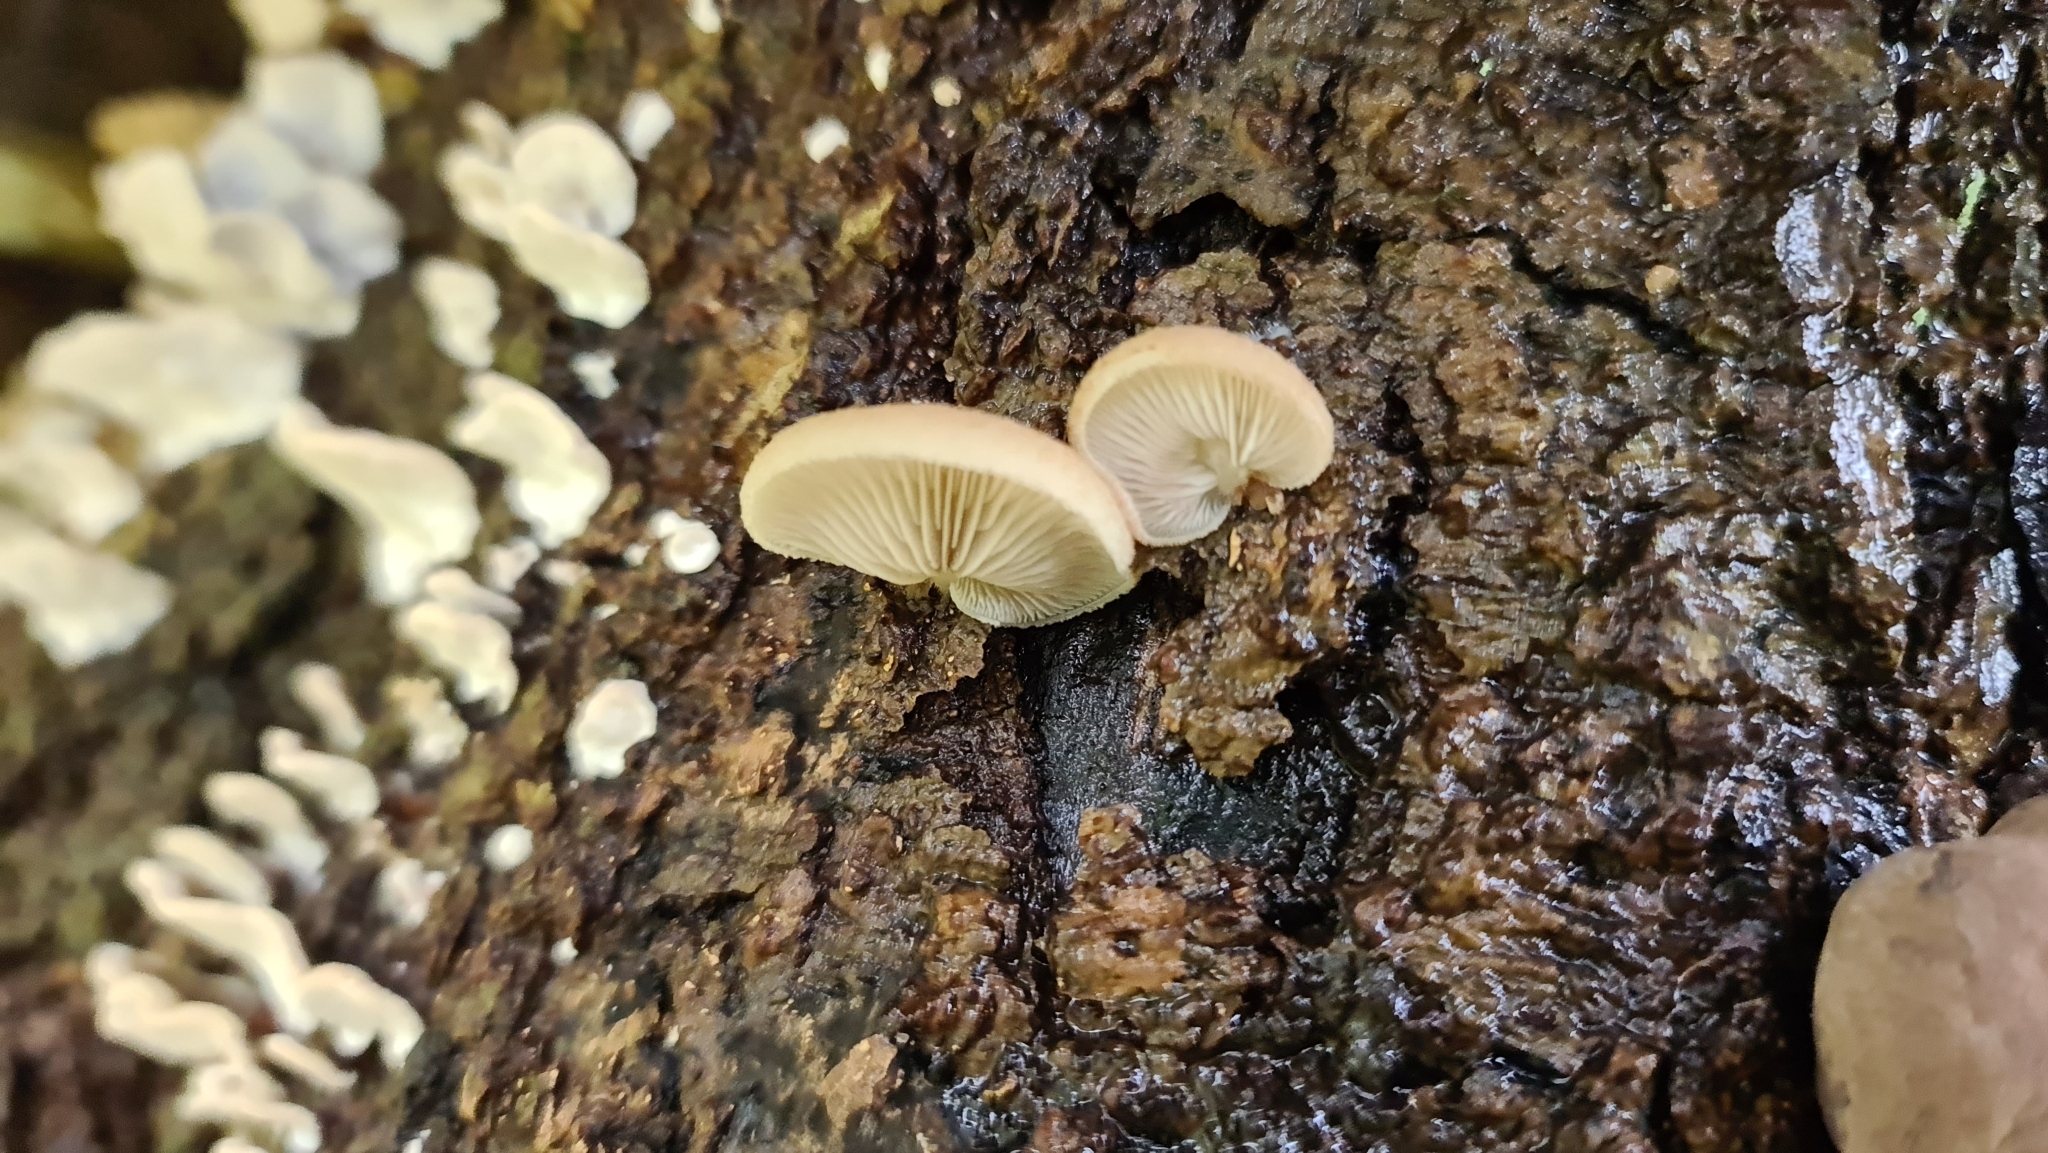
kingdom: Fungi
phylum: Basidiomycota
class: Agaricomycetes
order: Agaricales
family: Crepidotaceae
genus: Crepidotus
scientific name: Crepidotus mollis
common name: Peeling oysterling
